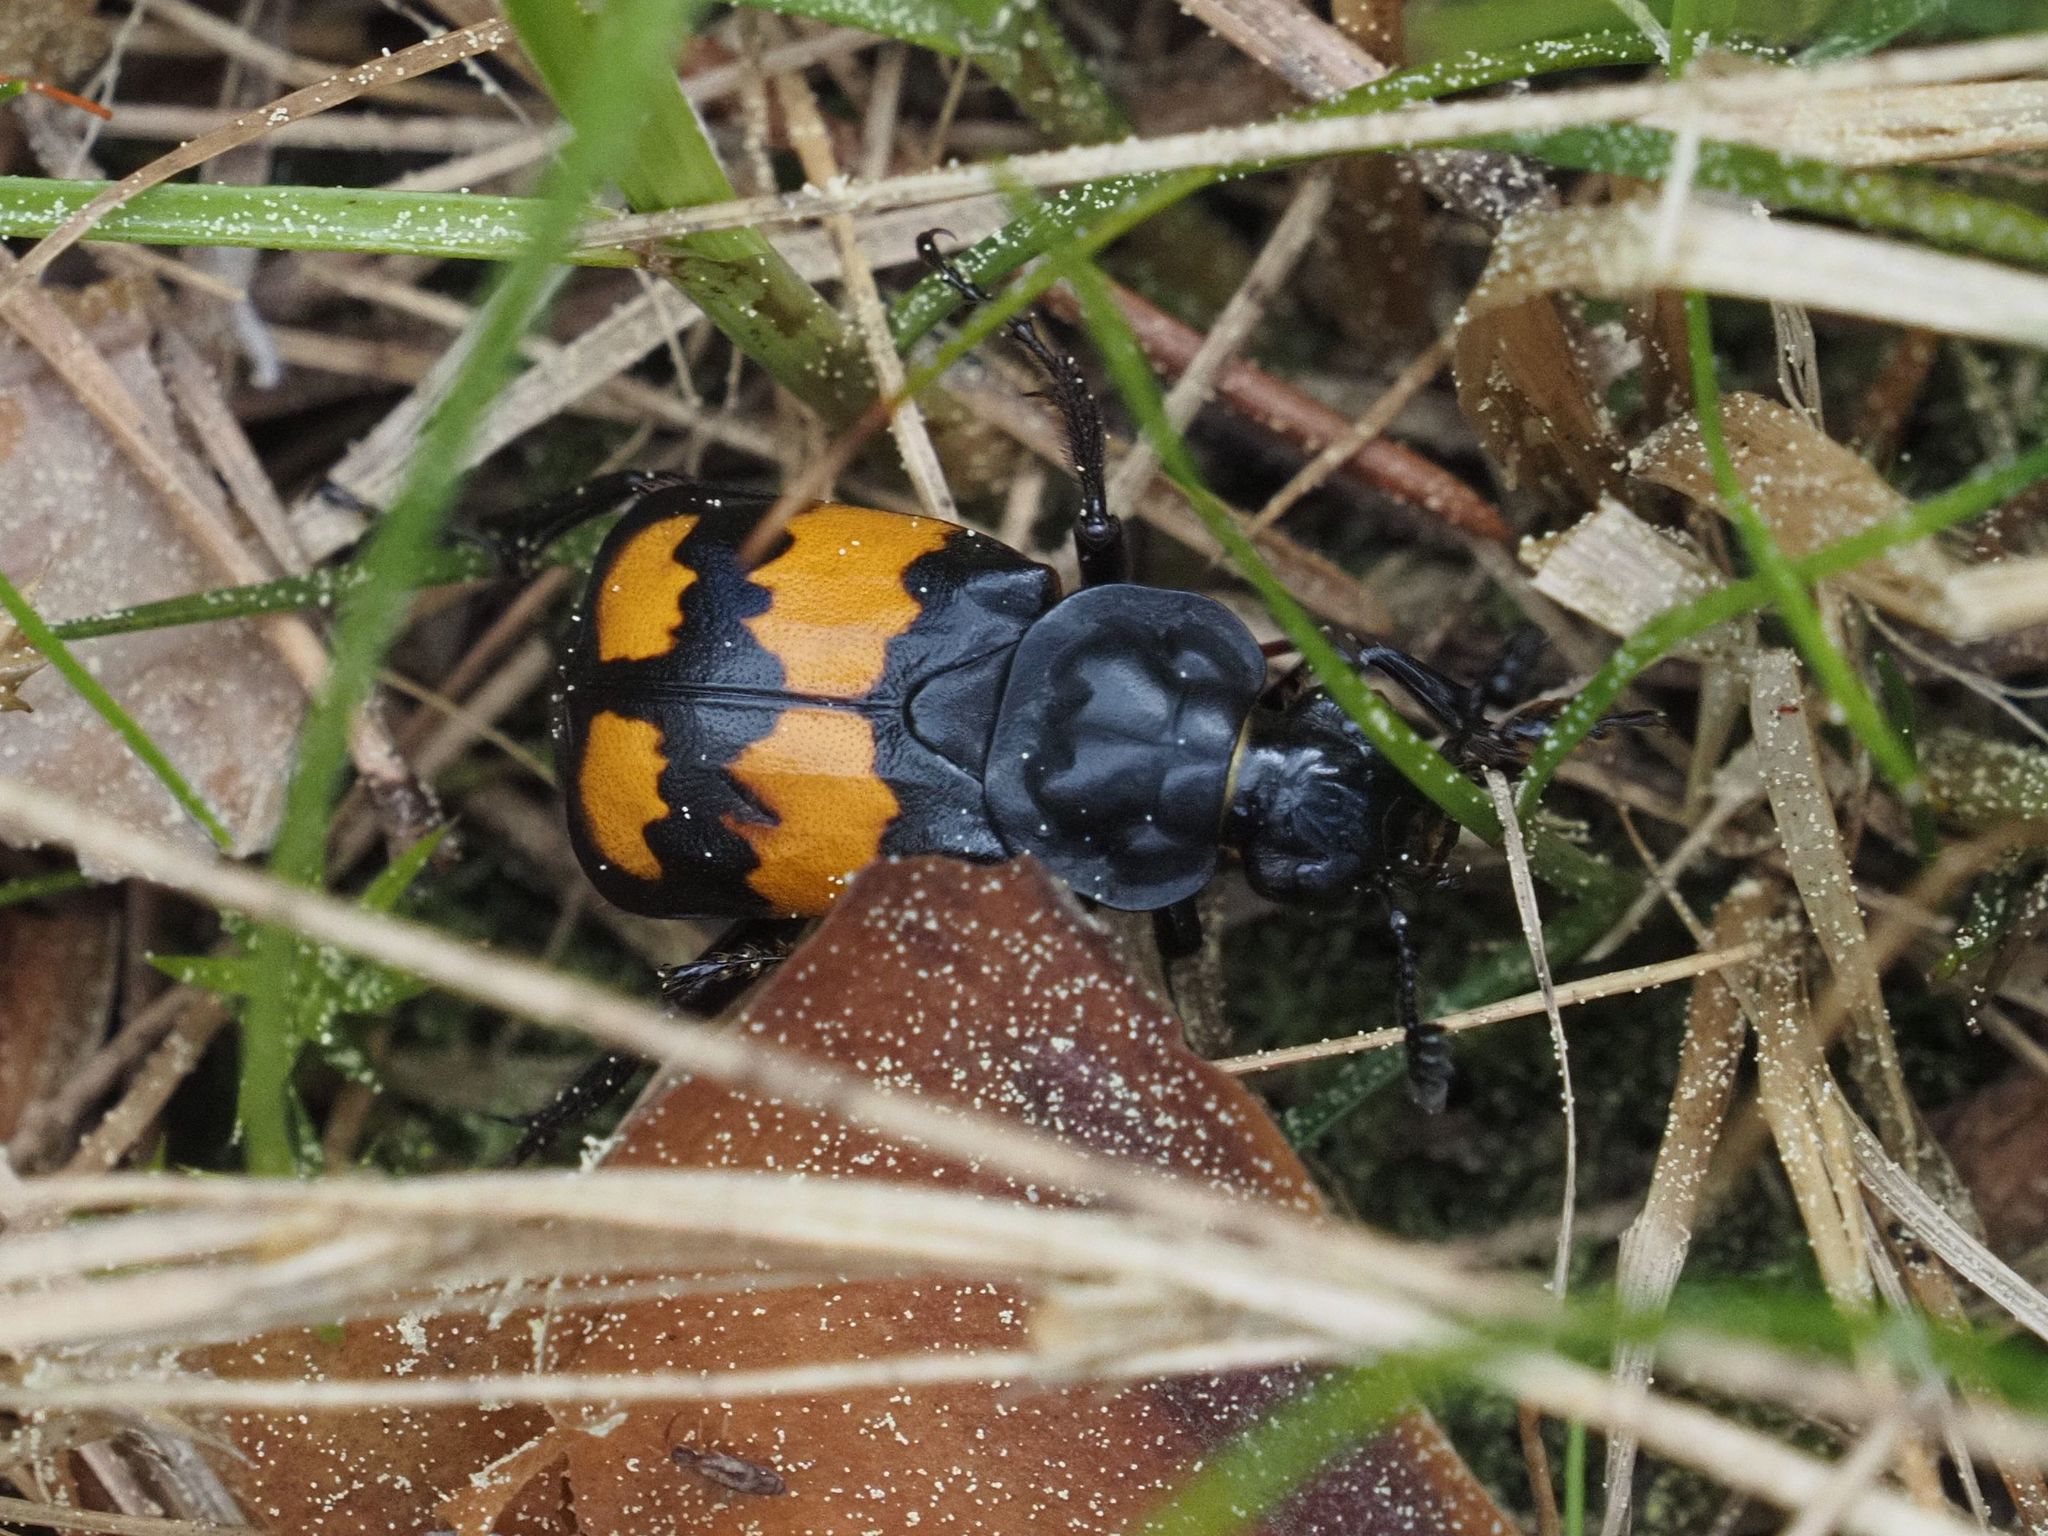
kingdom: Animalia
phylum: Arthropoda
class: Insecta
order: Coleoptera
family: Staphylinidae
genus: Nicrophorus
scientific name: Nicrophorus vespilloides
